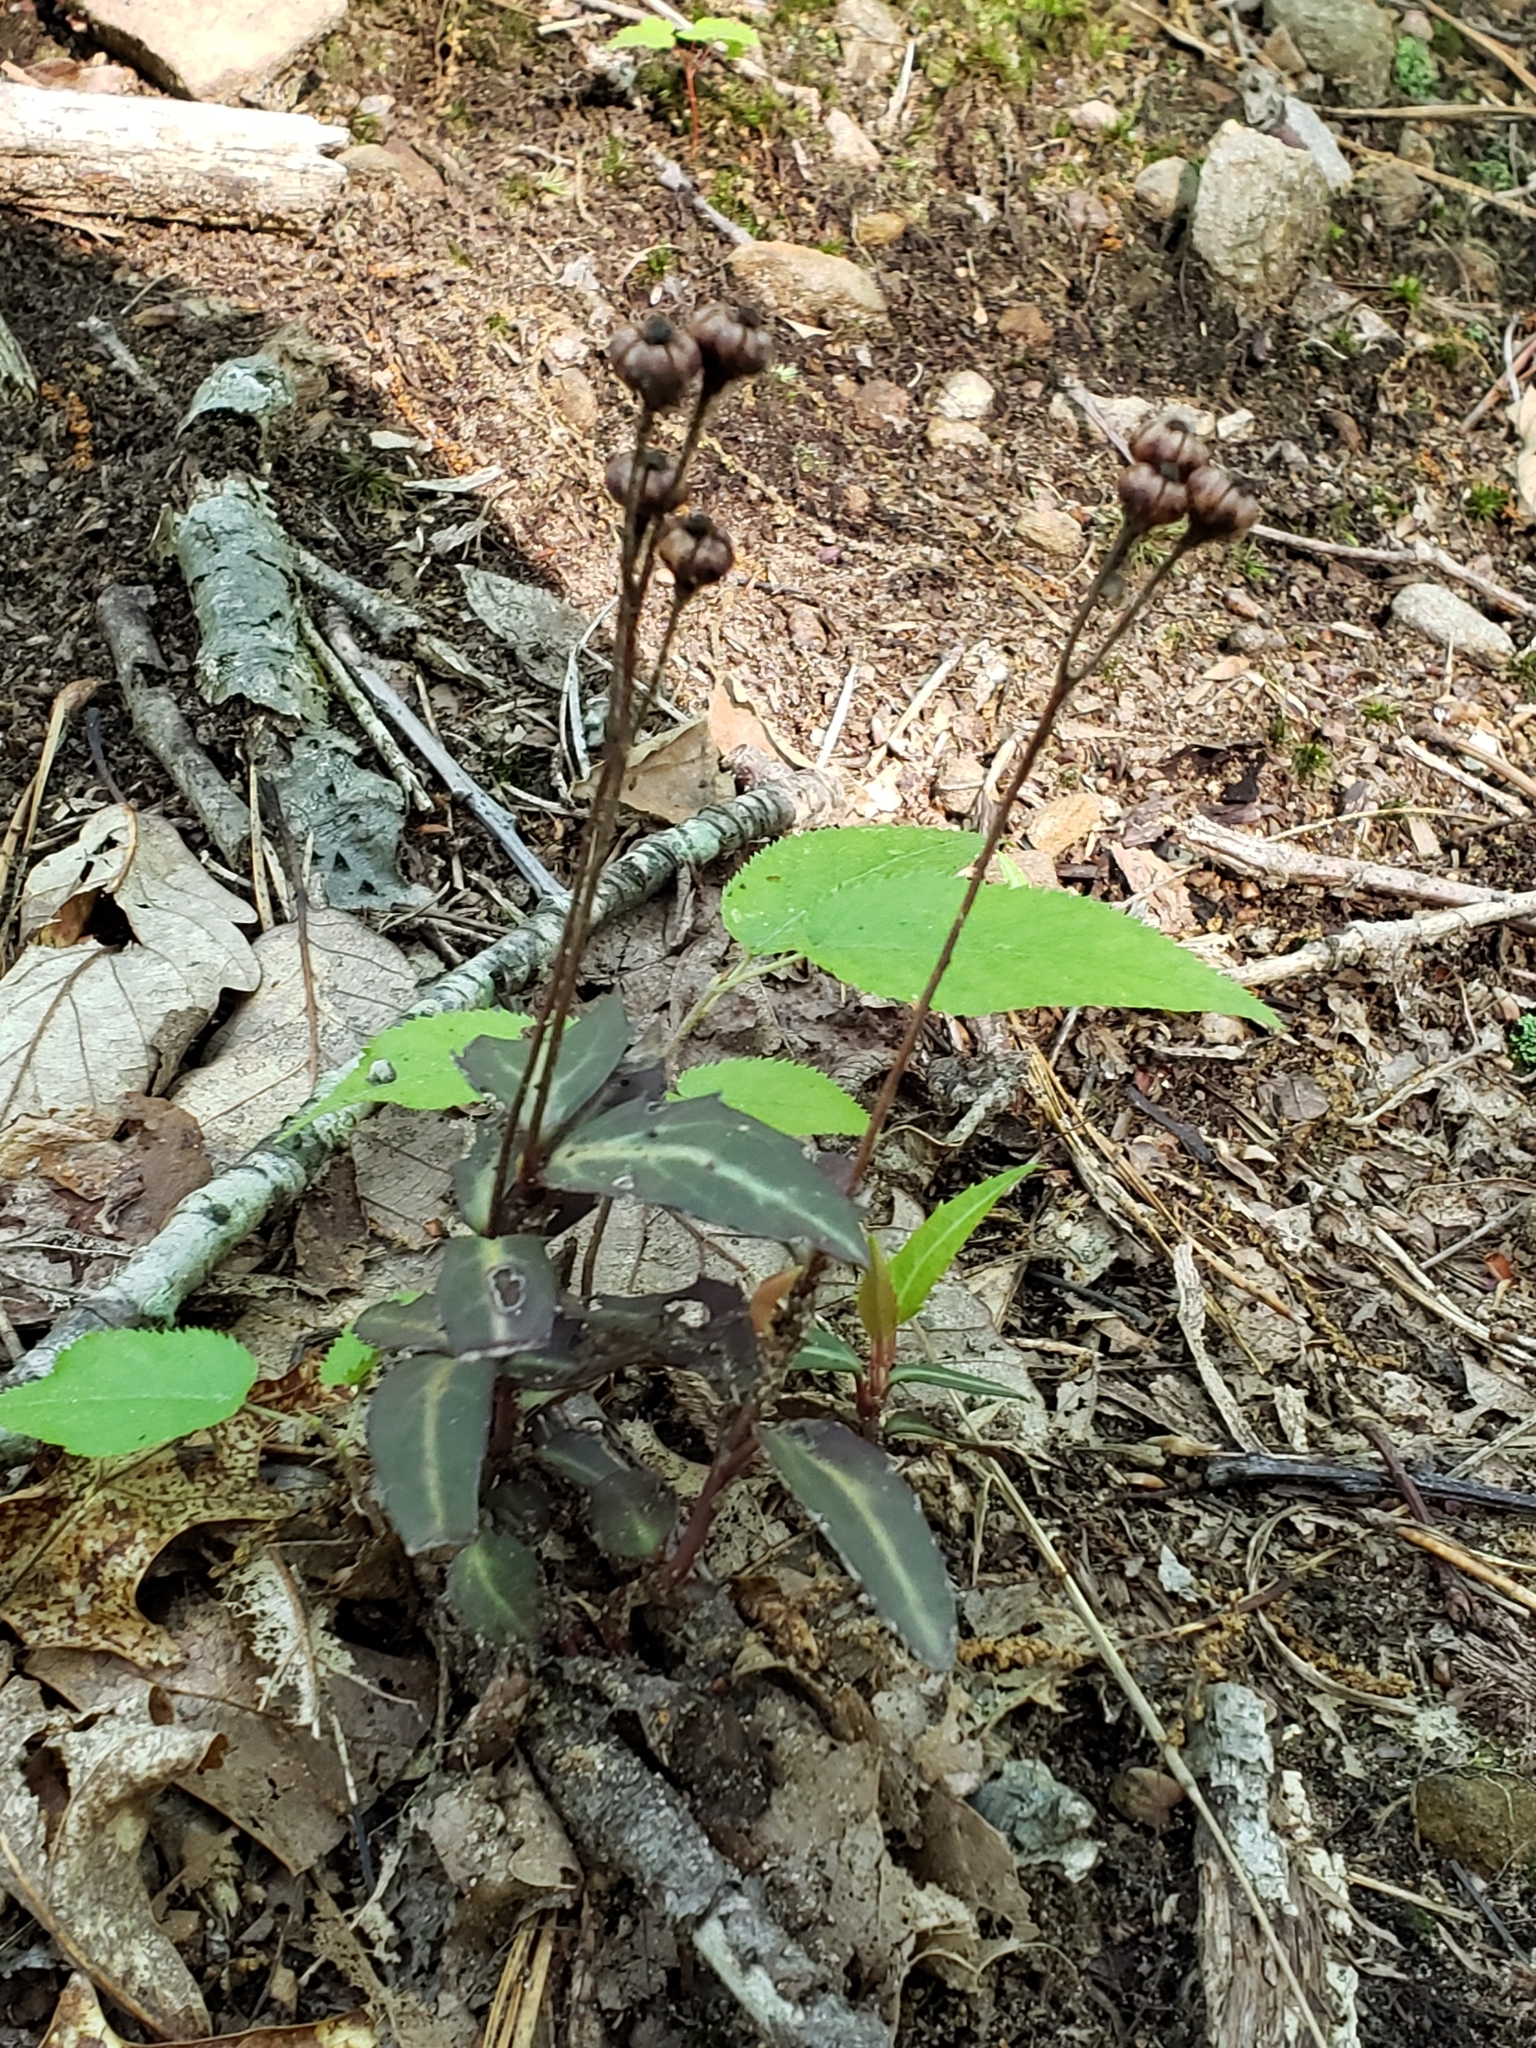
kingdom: Plantae
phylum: Tracheophyta
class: Magnoliopsida
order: Ericales
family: Ericaceae
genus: Chimaphila
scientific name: Chimaphila maculata
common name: Spotted pipsissewa
